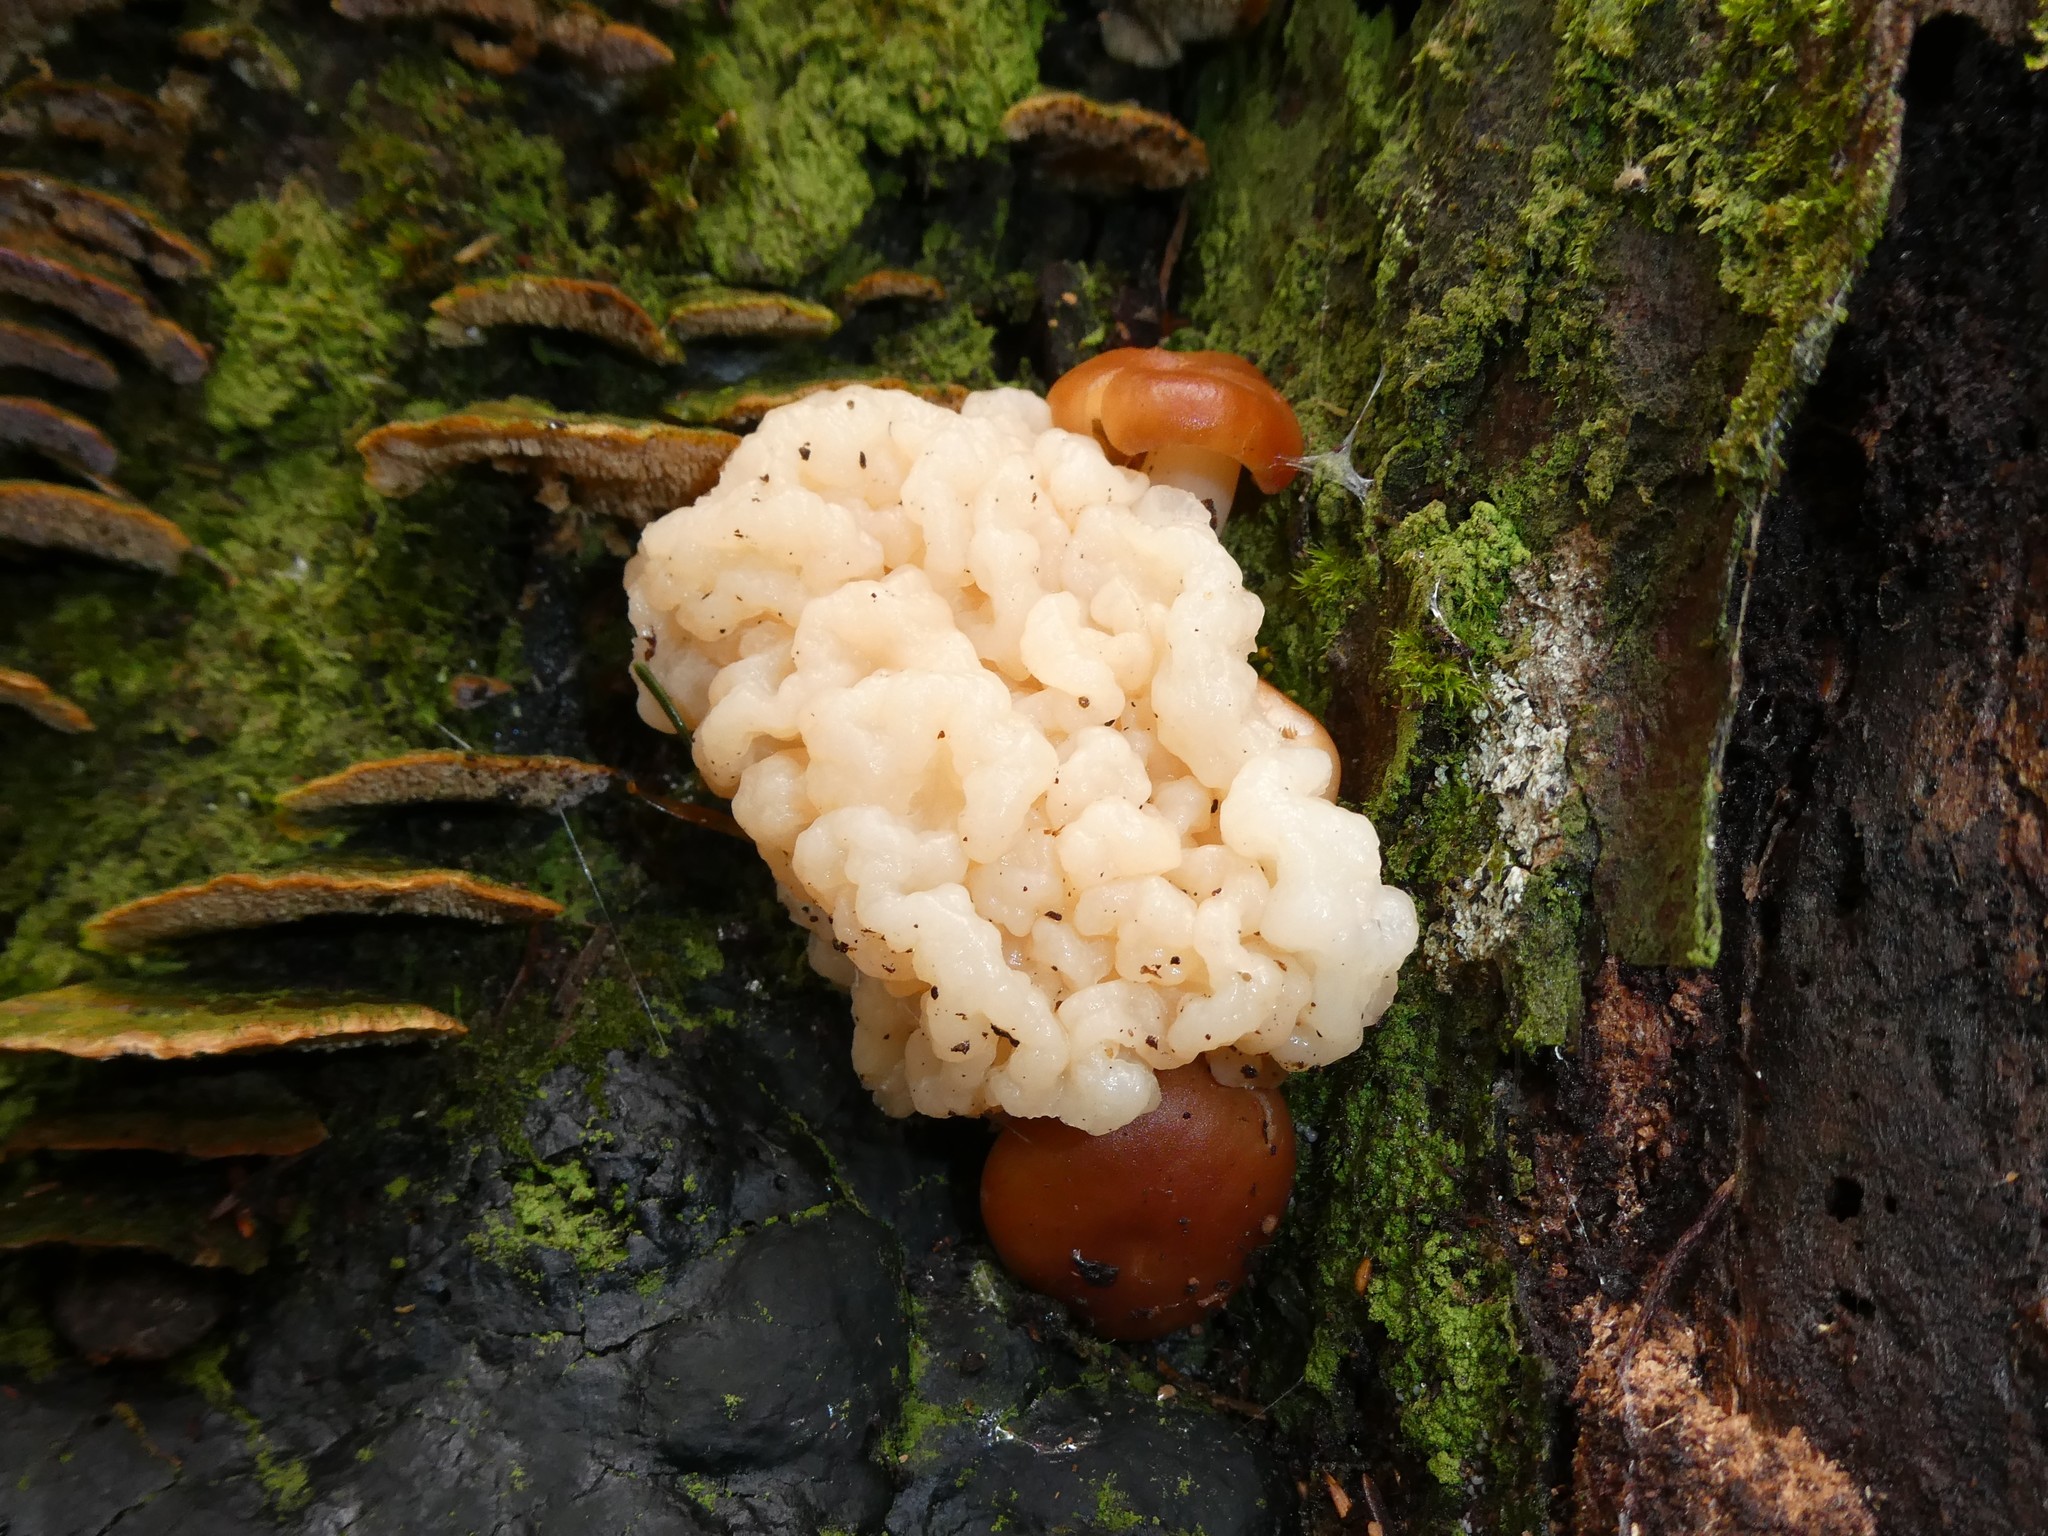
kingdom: Fungi
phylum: Basidiomycota
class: Agaricomycetes
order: Agaricales
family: Omphalotaceae
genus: Gymnopus
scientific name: Gymnopus dryophilus
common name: Penny top
